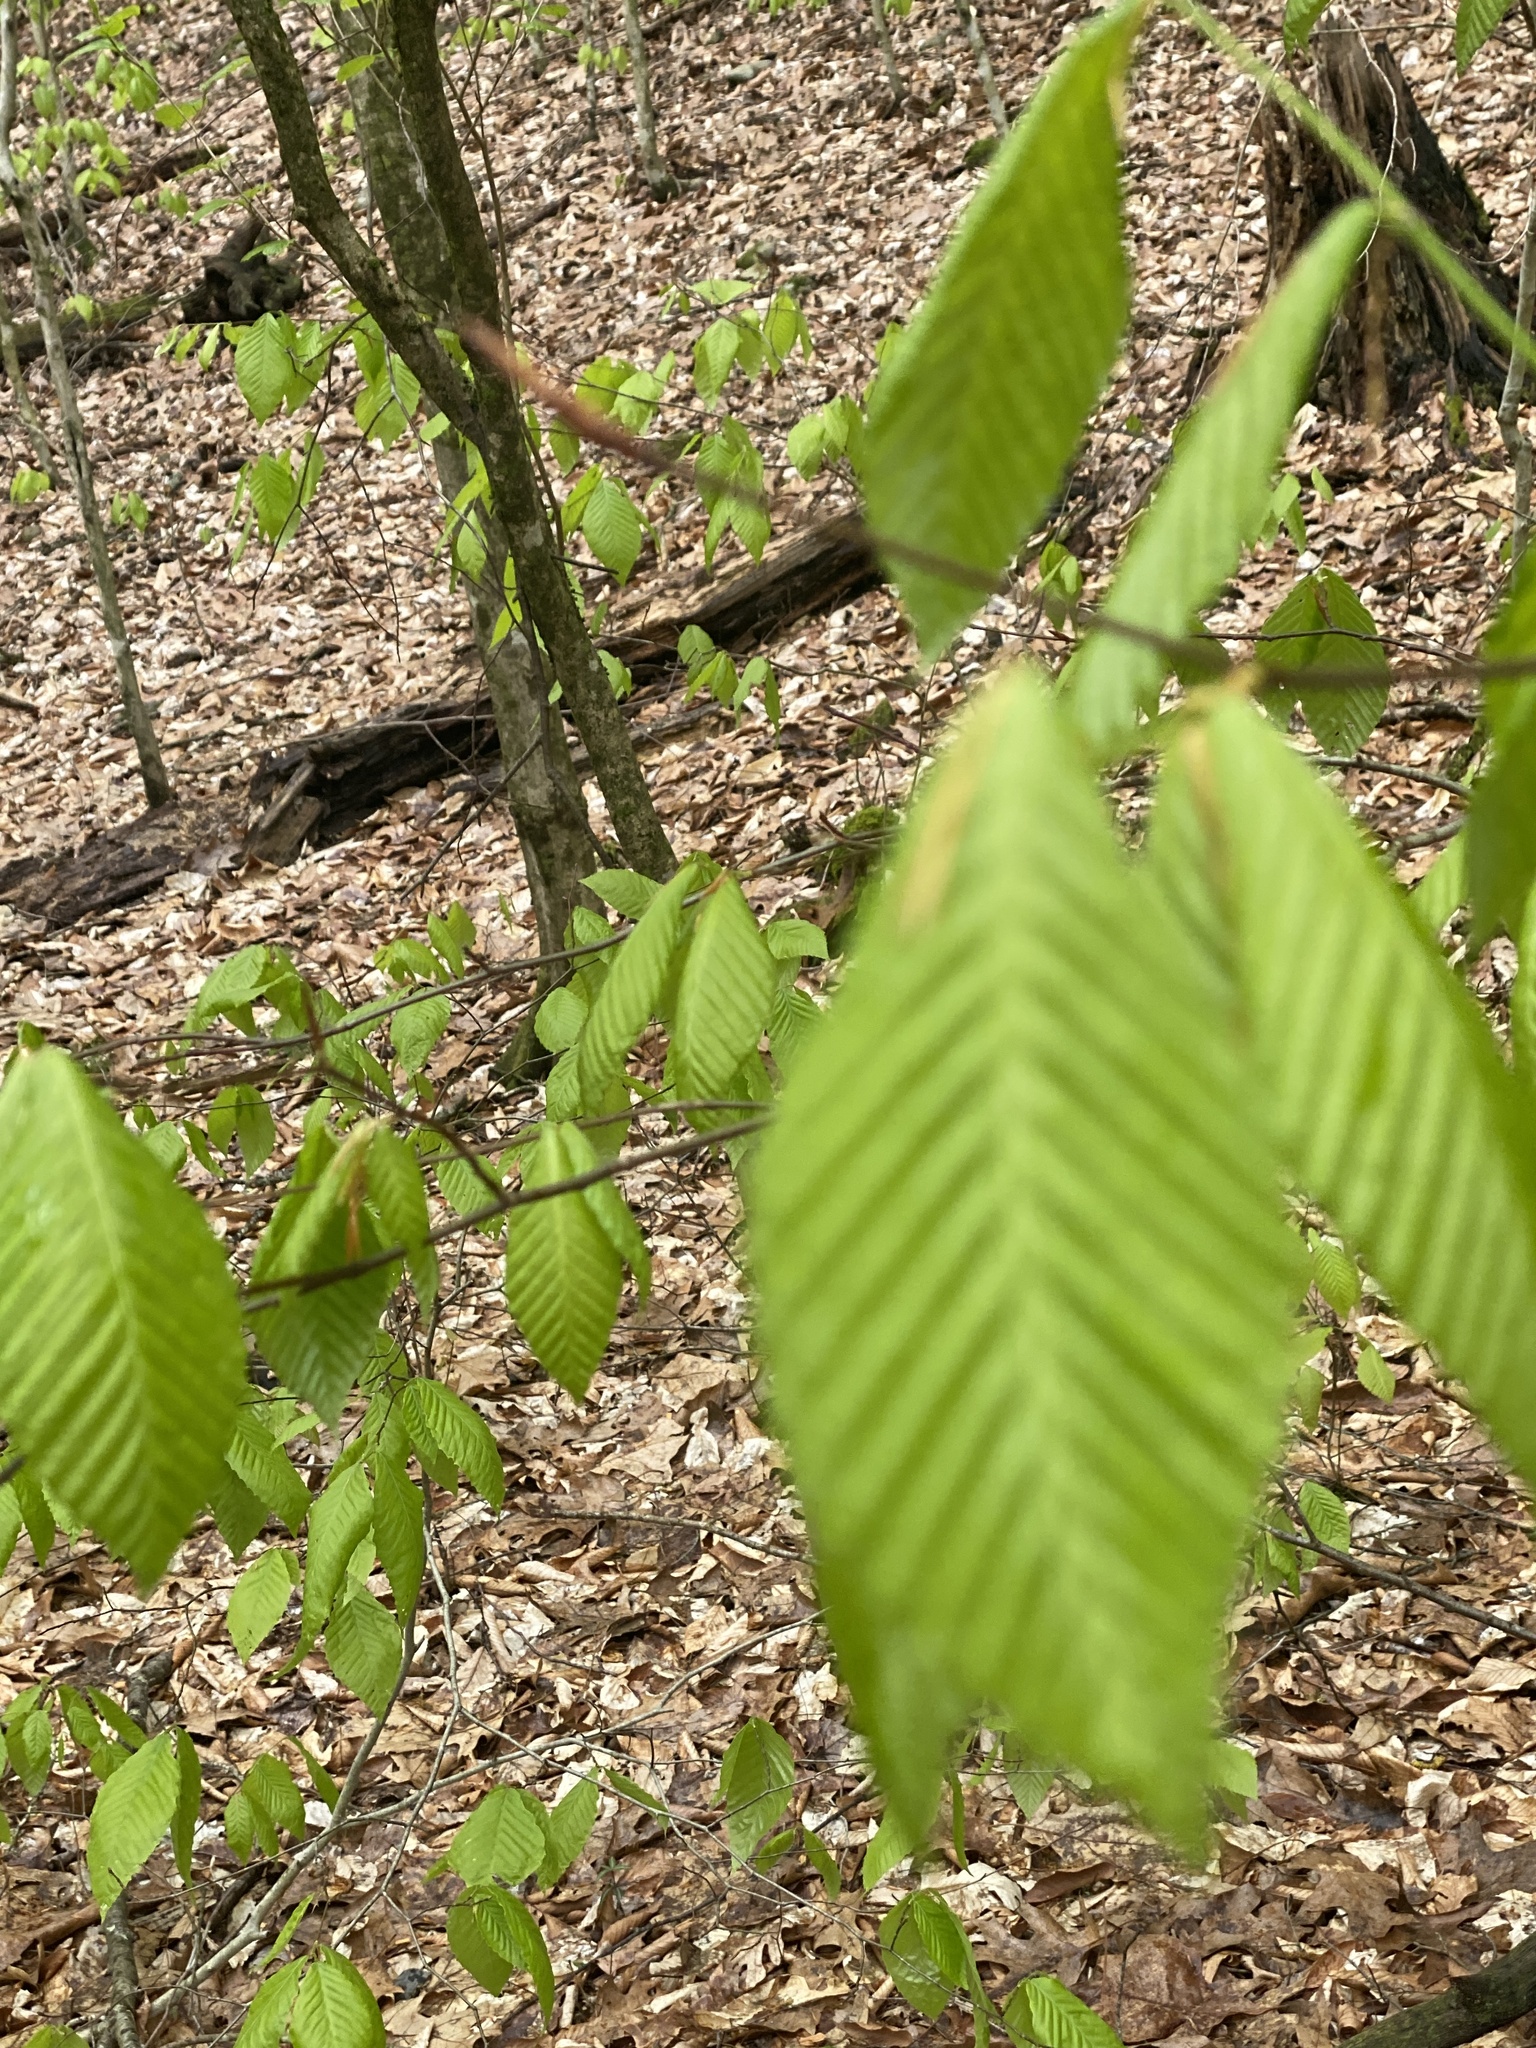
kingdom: Plantae
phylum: Tracheophyta
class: Magnoliopsida
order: Fagales
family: Fagaceae
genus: Fagus
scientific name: Fagus grandifolia
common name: American beech
